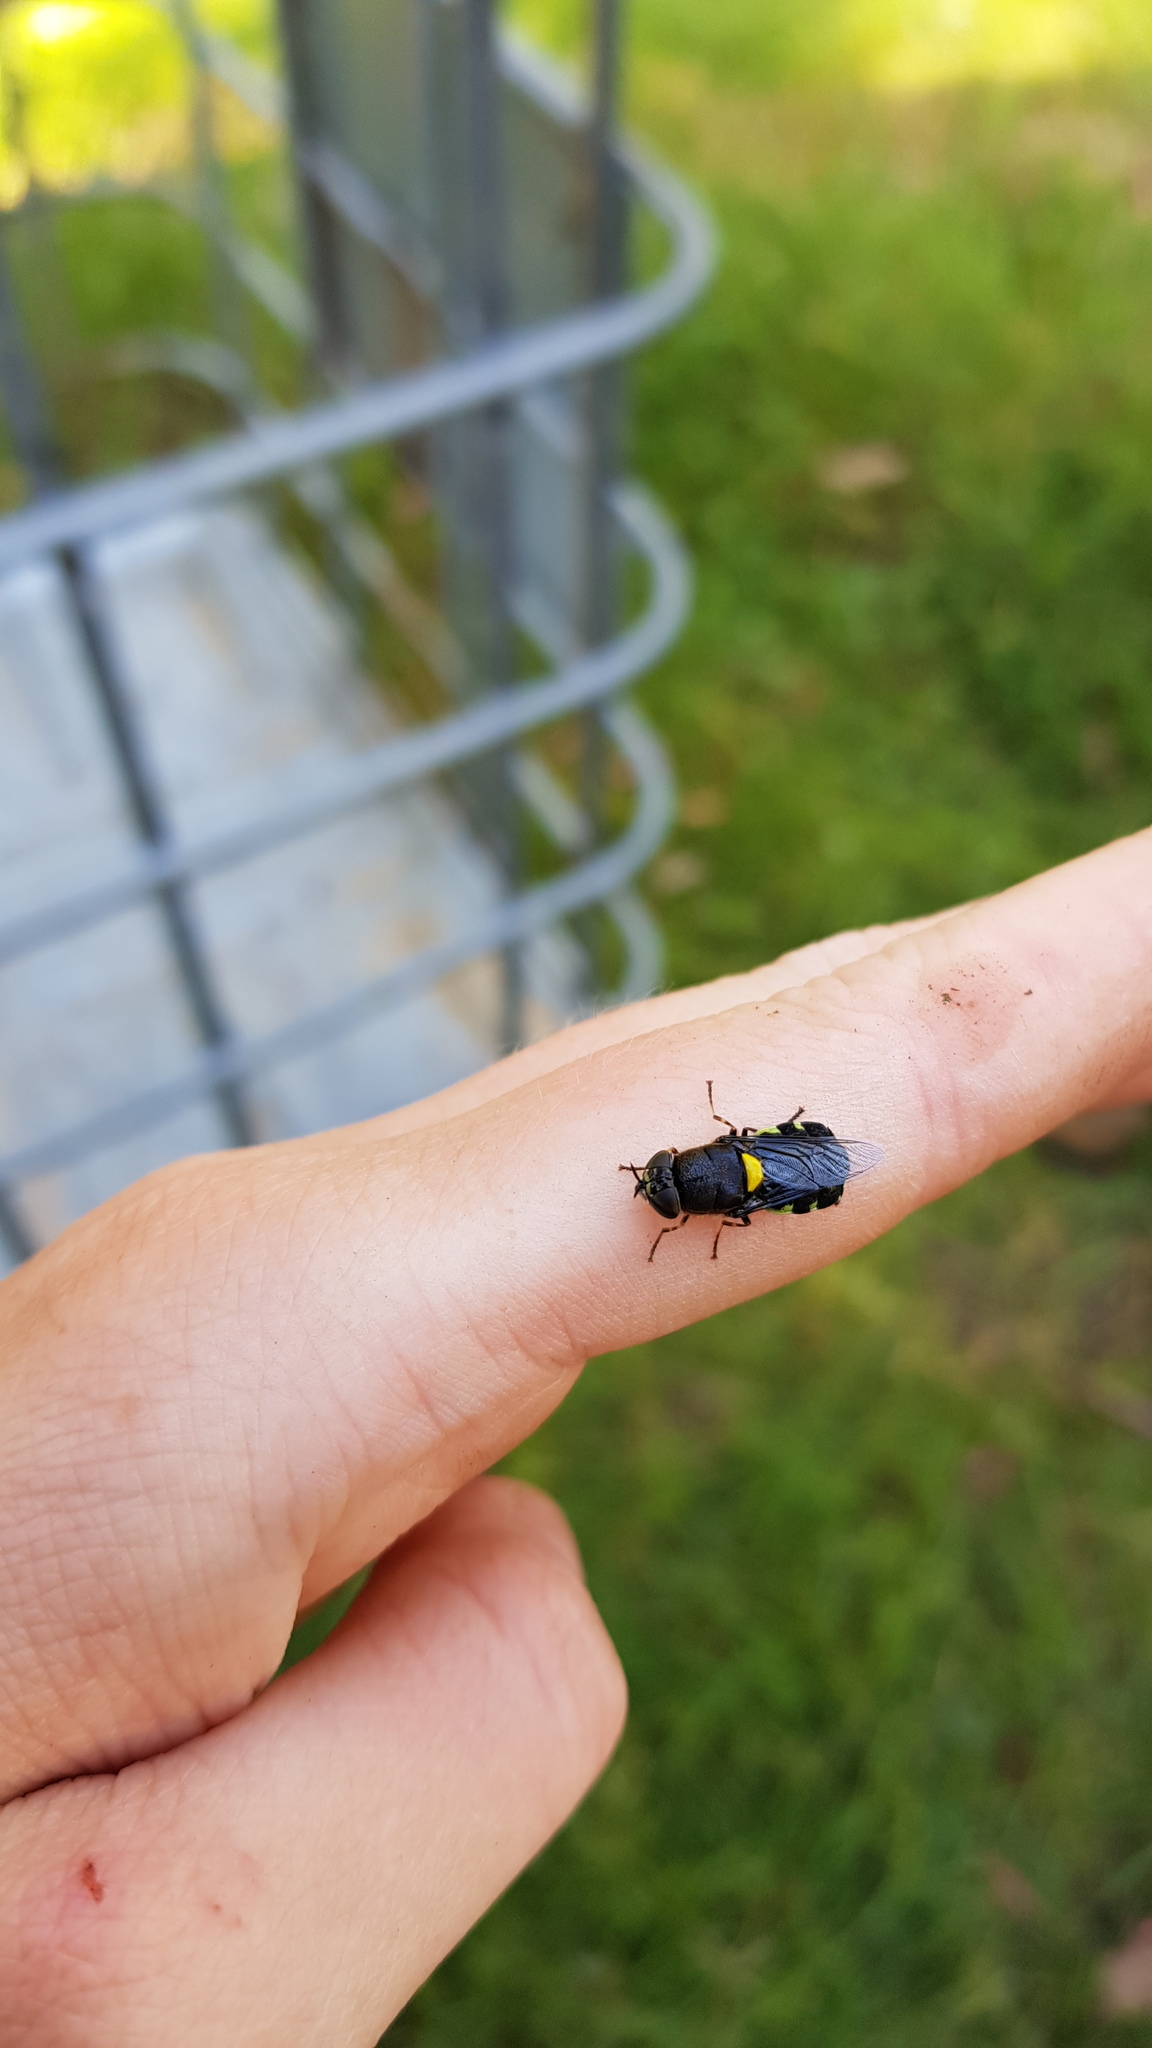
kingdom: Animalia
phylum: Arthropoda
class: Insecta
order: Diptera
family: Stratiomyidae
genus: Odontomyia
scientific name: Odontomyia hunteri
